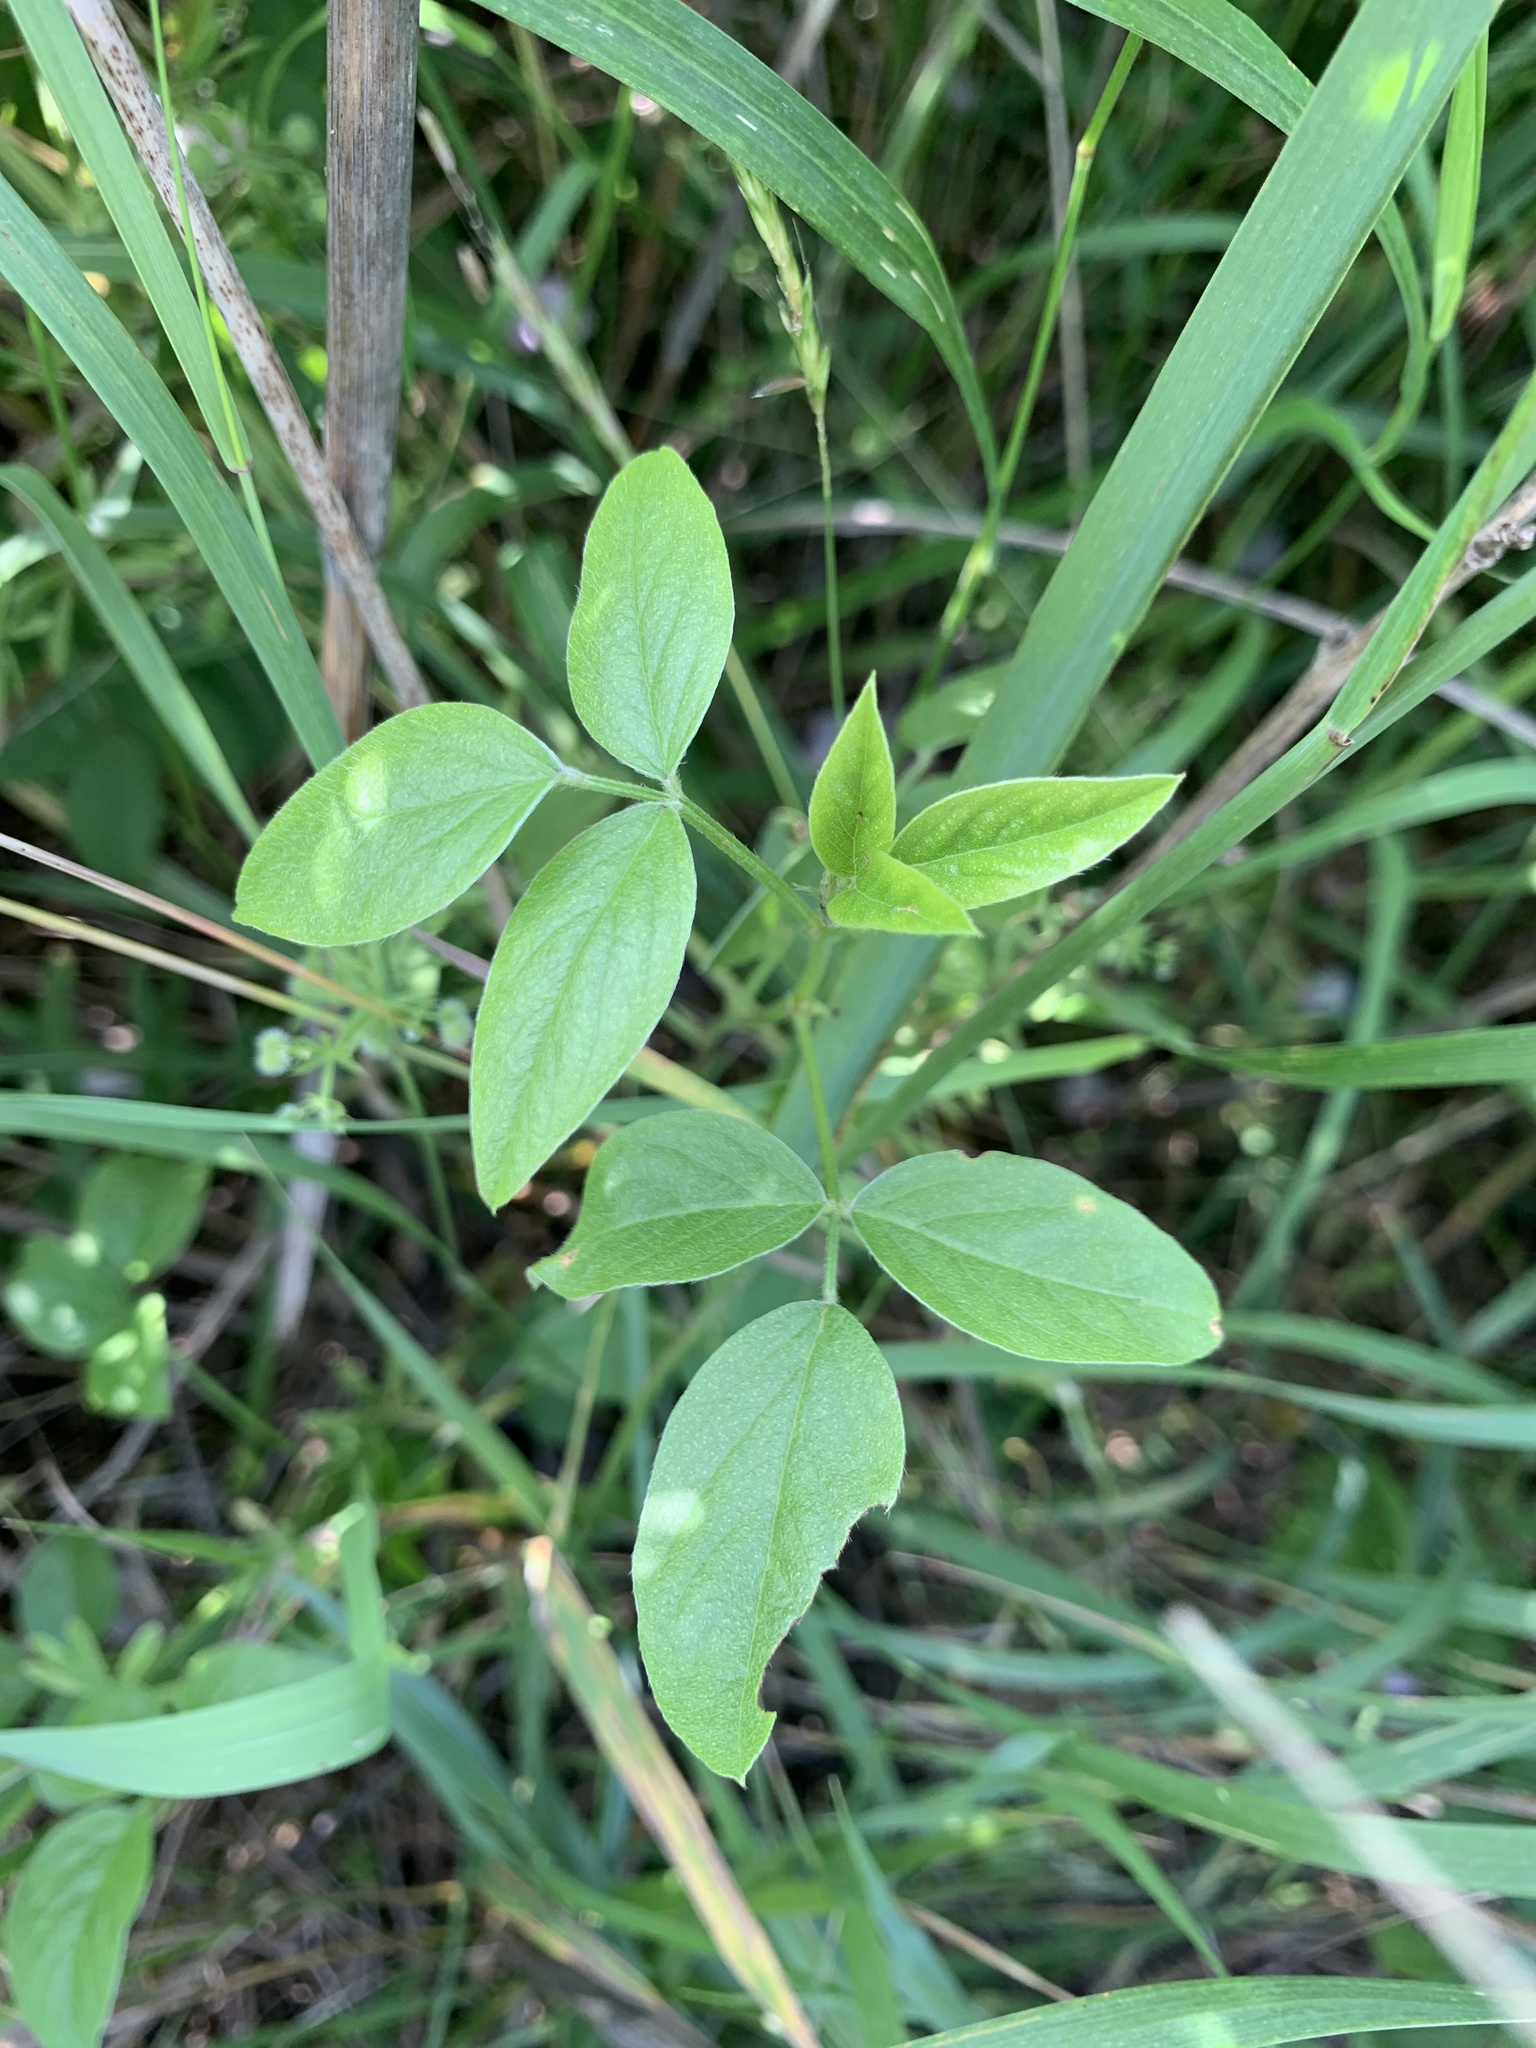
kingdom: Plantae
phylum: Tracheophyta
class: Magnoliopsida
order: Fabales
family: Fabaceae
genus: Bituminaria
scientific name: Bituminaria bituminosa
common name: Arabian pea
